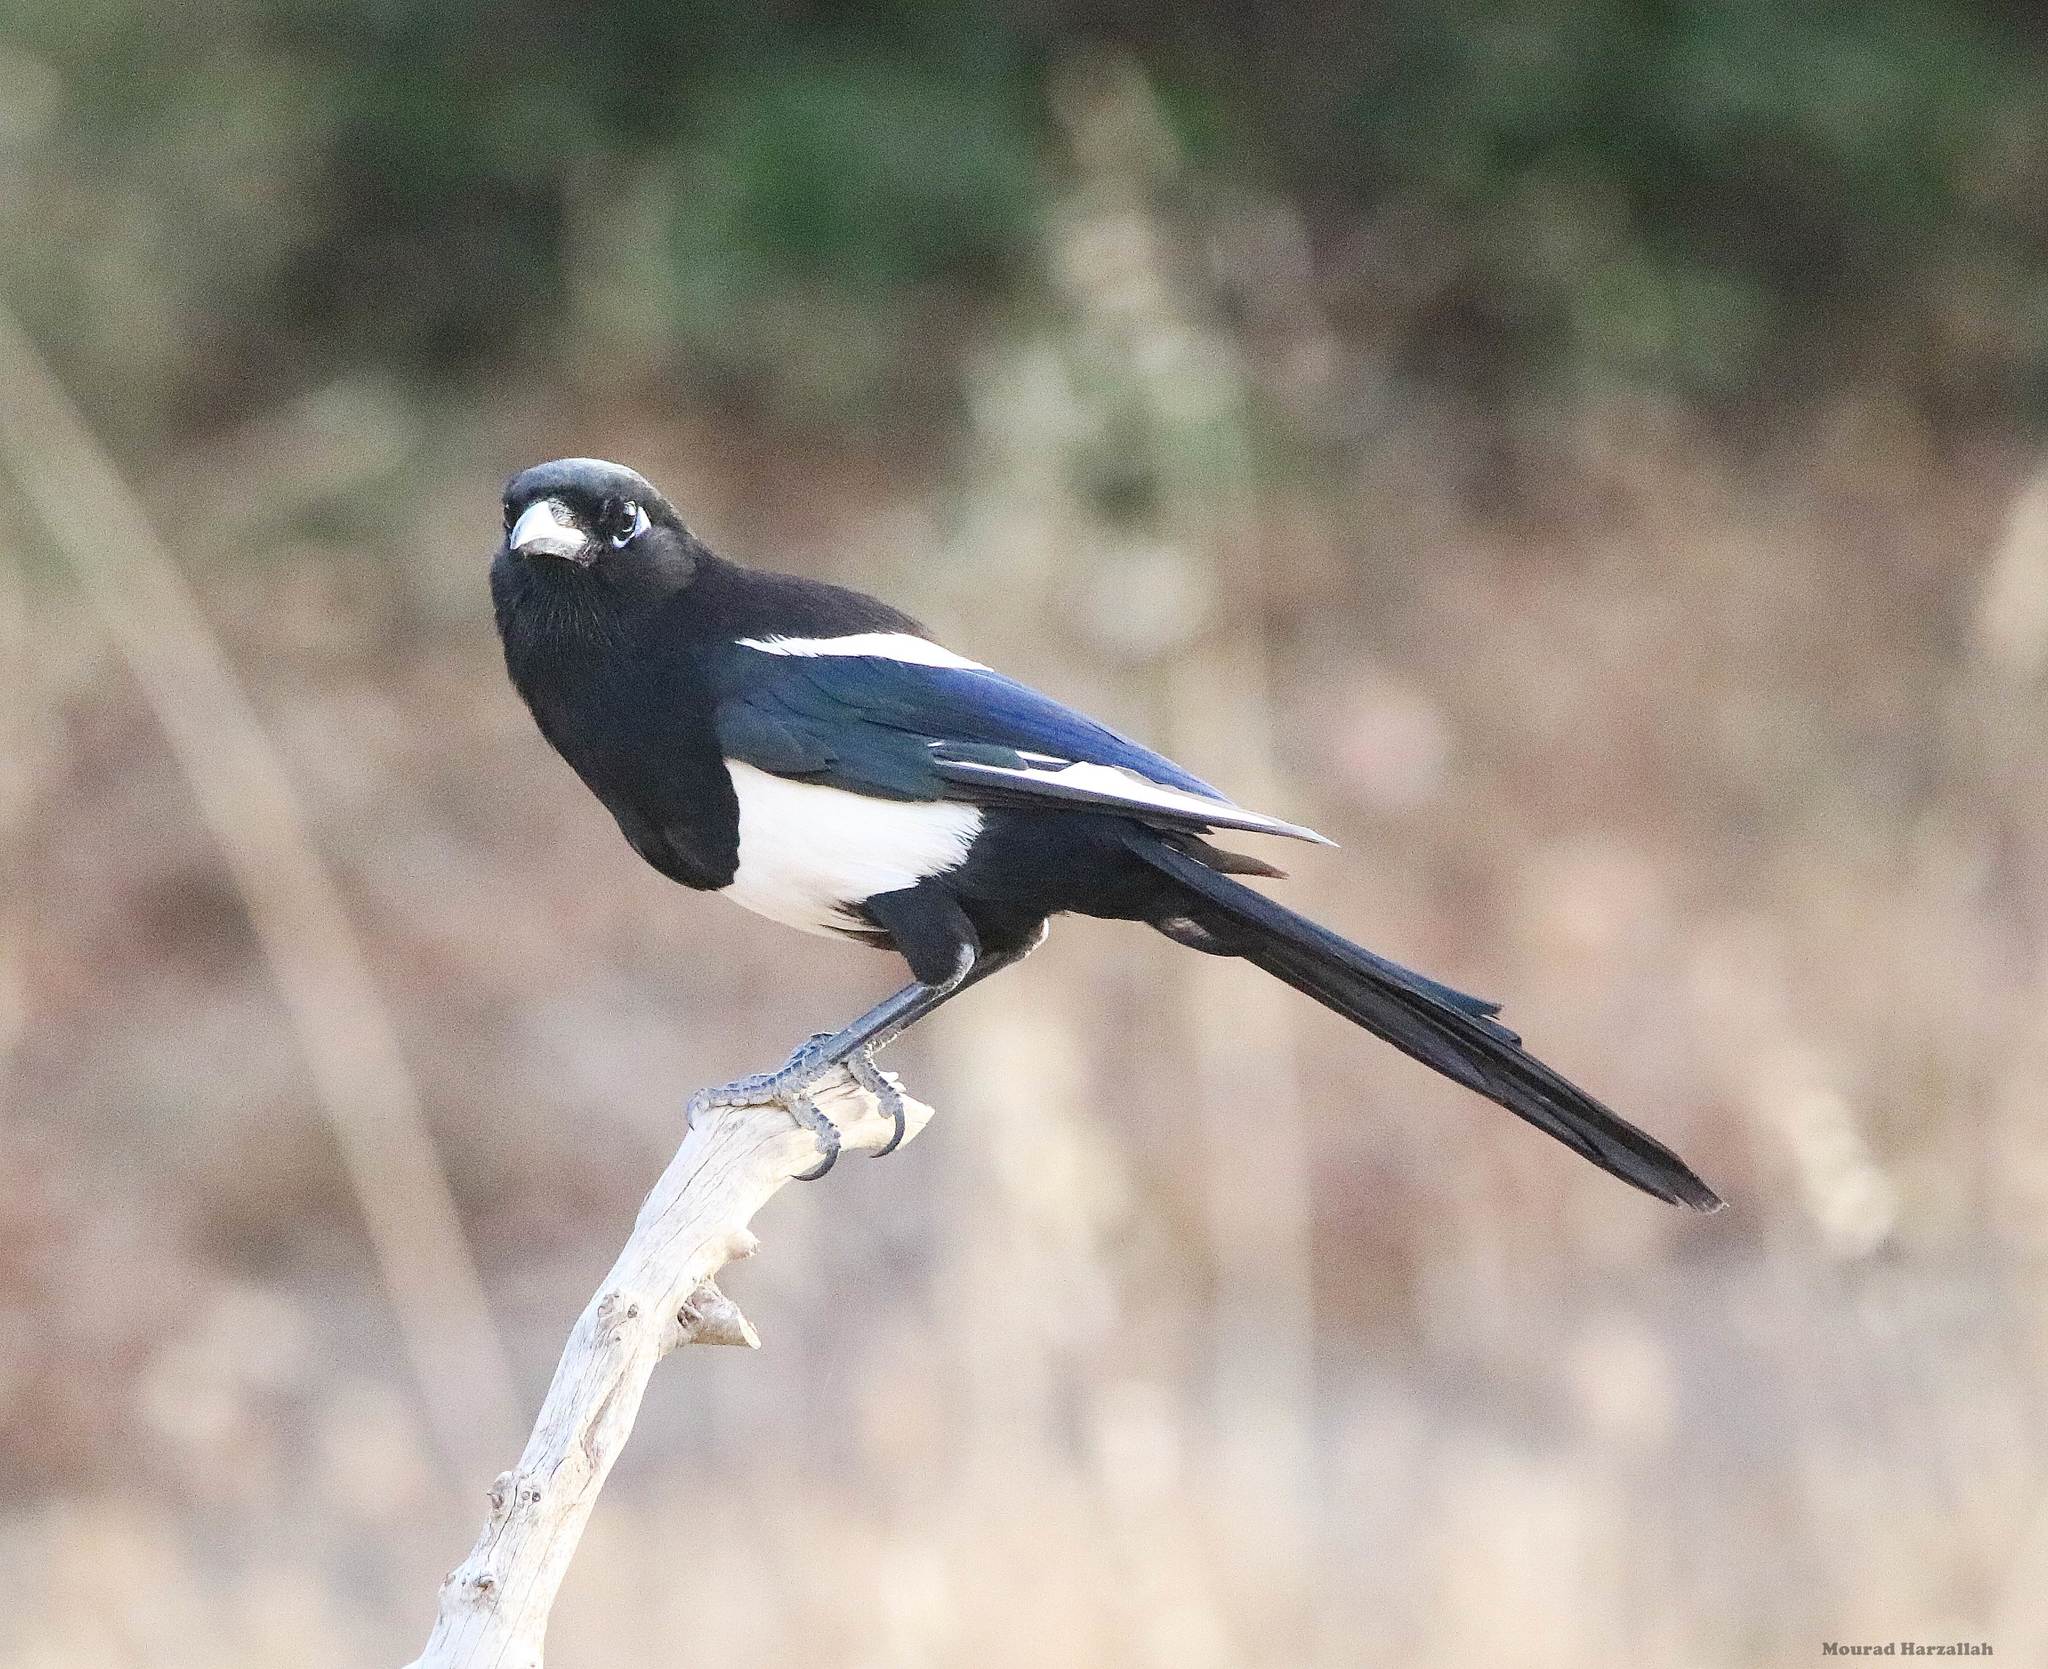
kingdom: Animalia
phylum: Chordata
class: Aves
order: Passeriformes
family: Corvidae
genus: Pica
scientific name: Pica mauritanica
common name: Maghreb magpie
